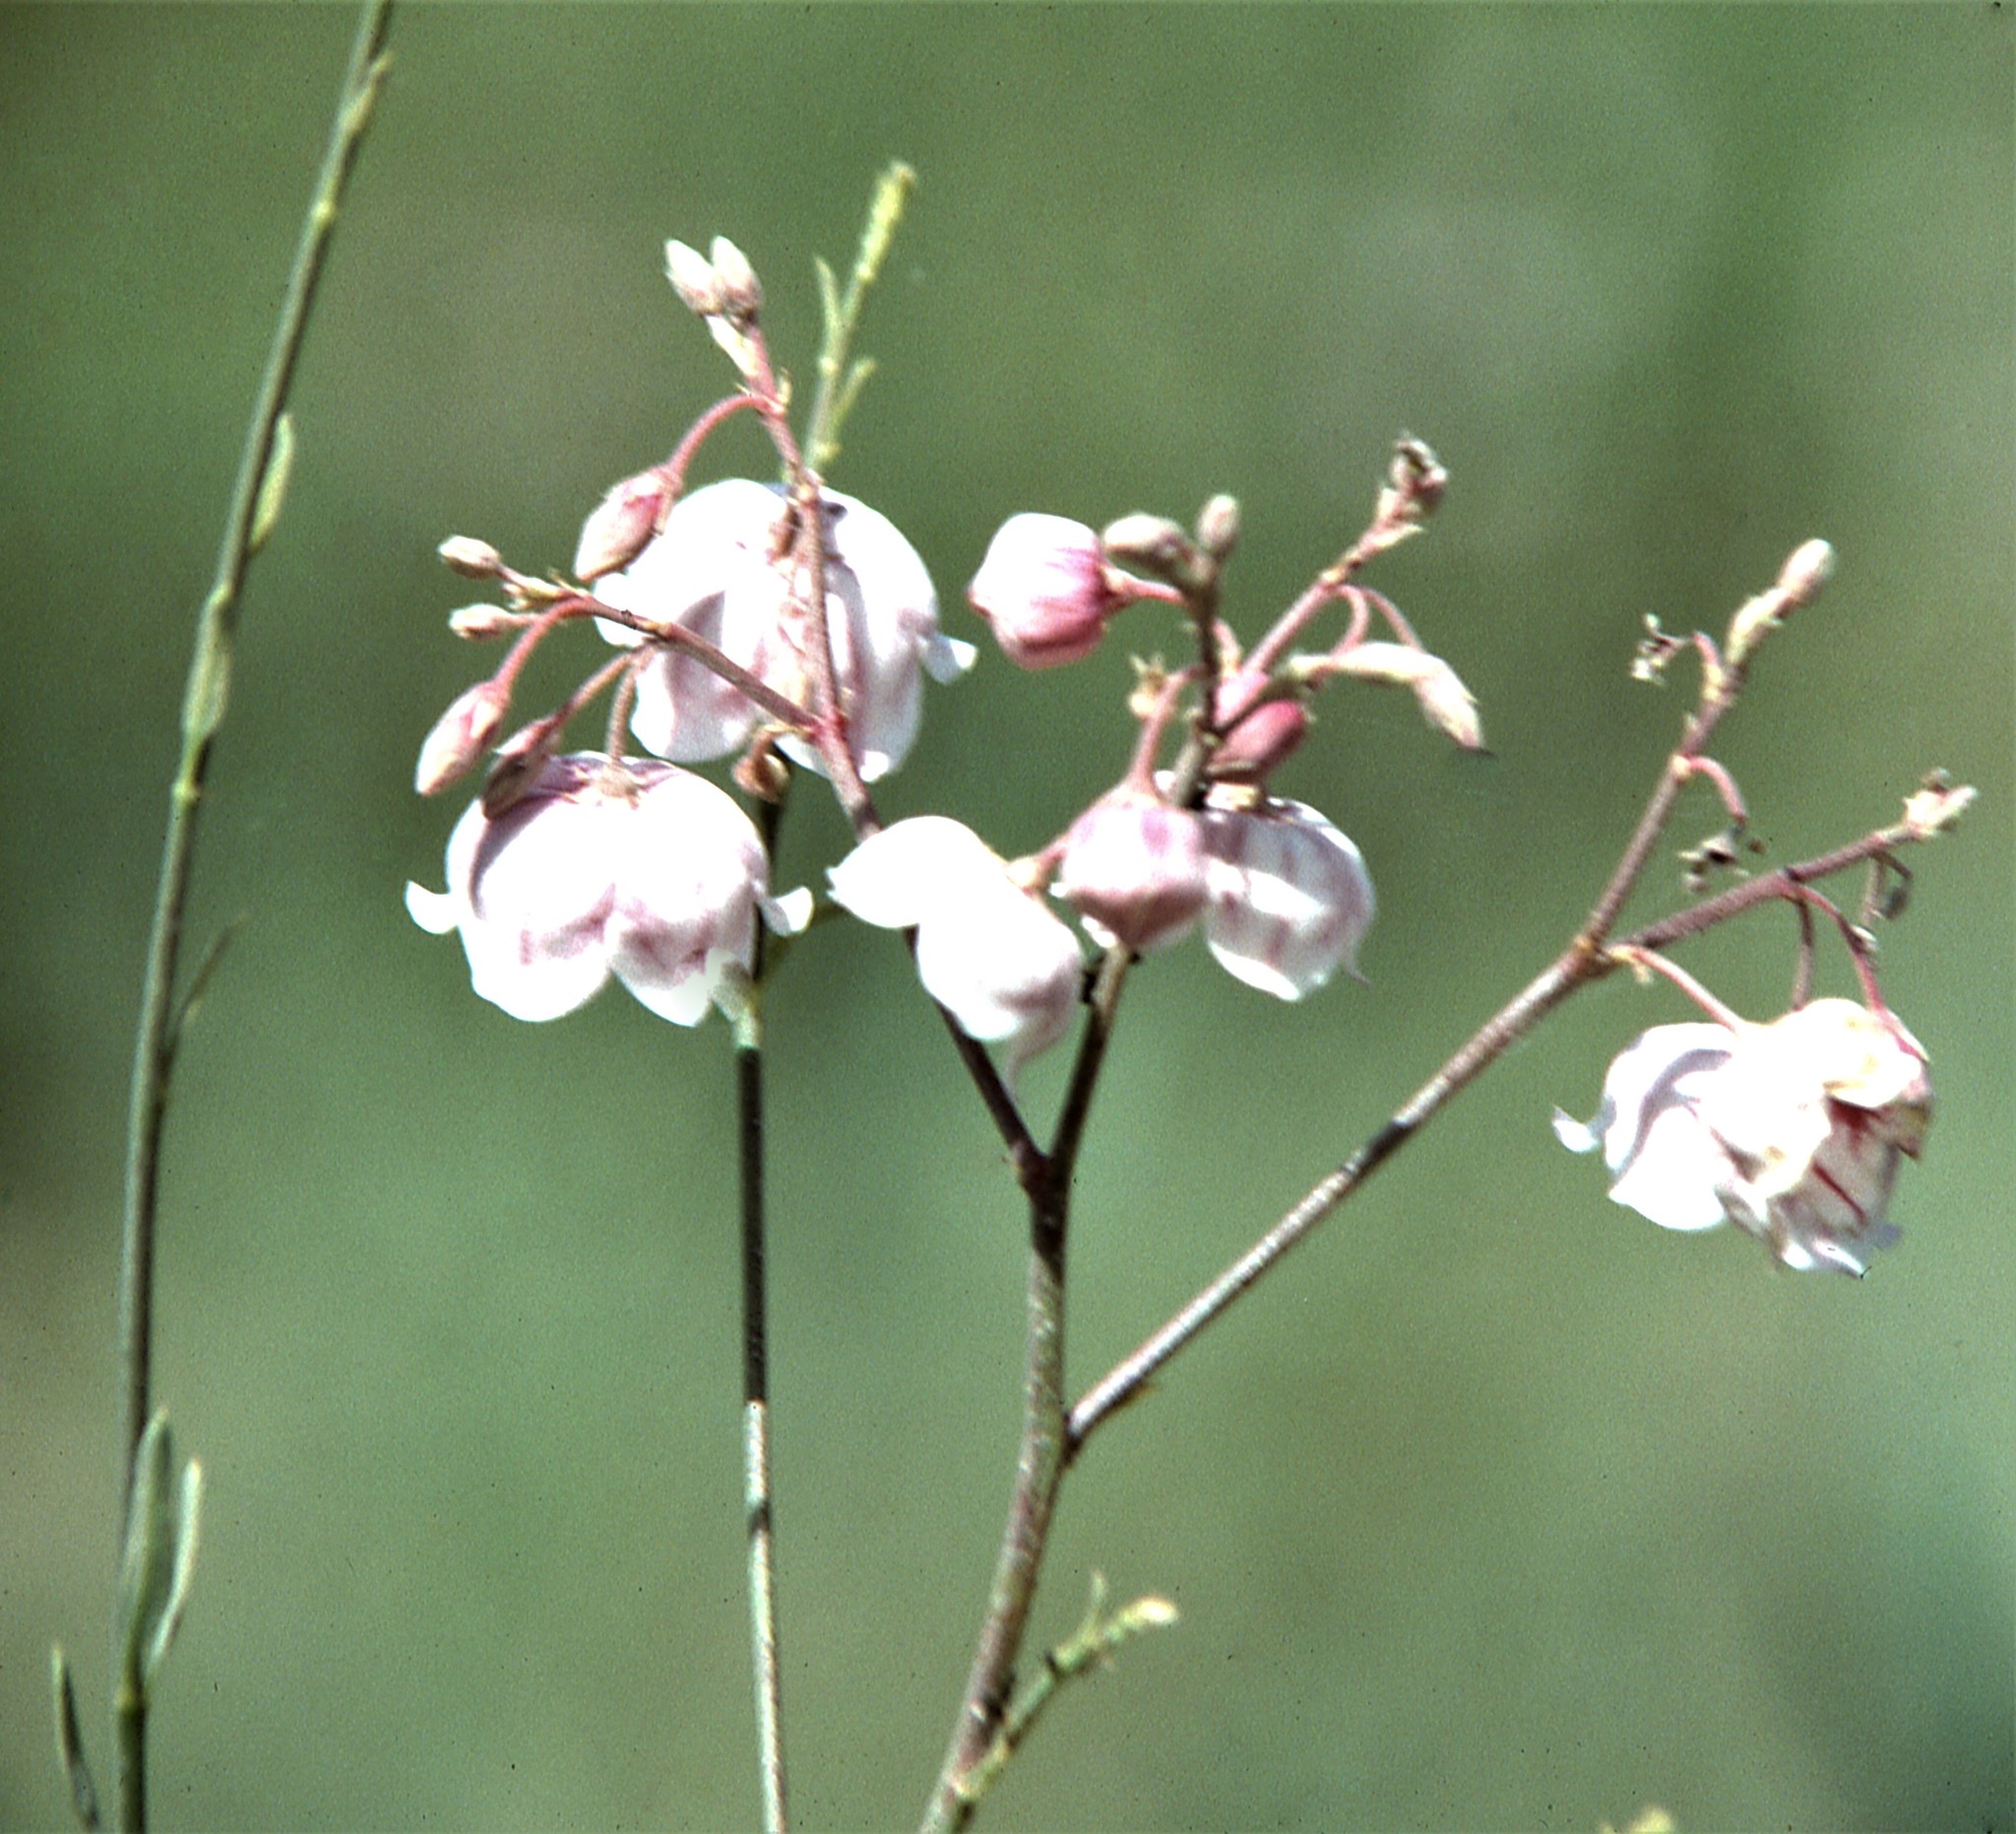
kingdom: Plantae
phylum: Tracheophyta
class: Magnoliopsida
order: Gentianales
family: Apocynaceae
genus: Poacynum
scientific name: Poacynum pictum
